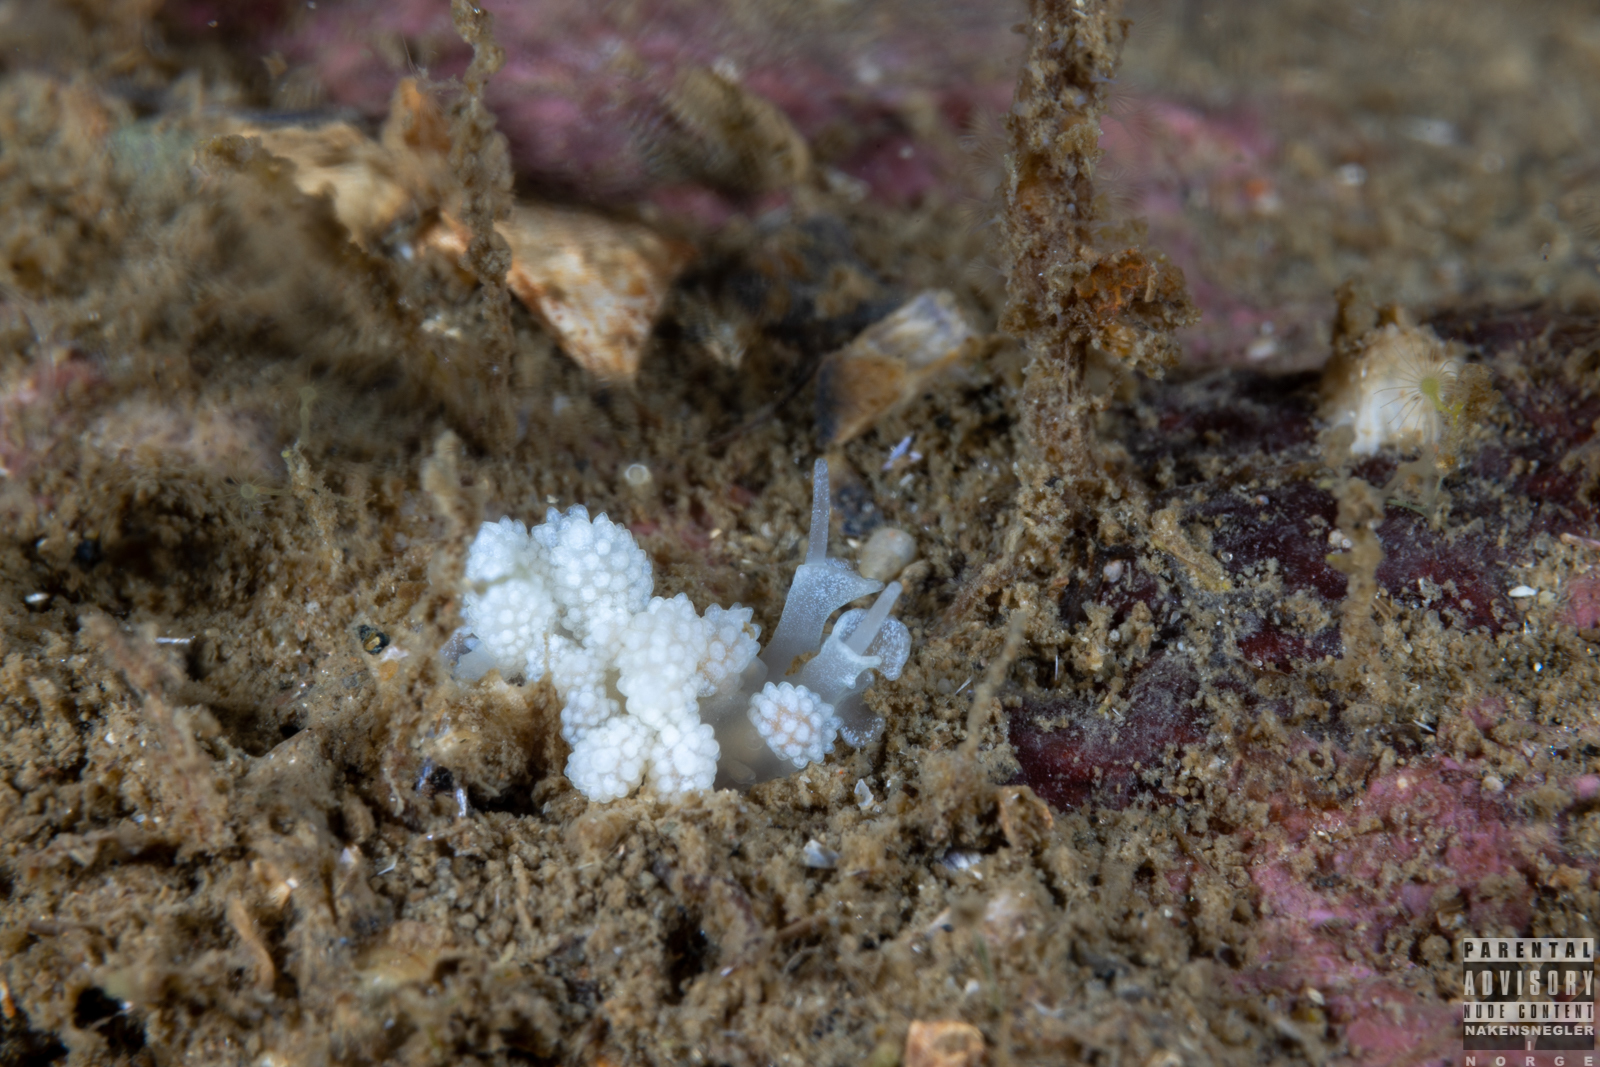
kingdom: Animalia
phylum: Mollusca
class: Gastropoda
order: Nudibranchia
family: Dotidae
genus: Doto
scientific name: Doto fragilis
